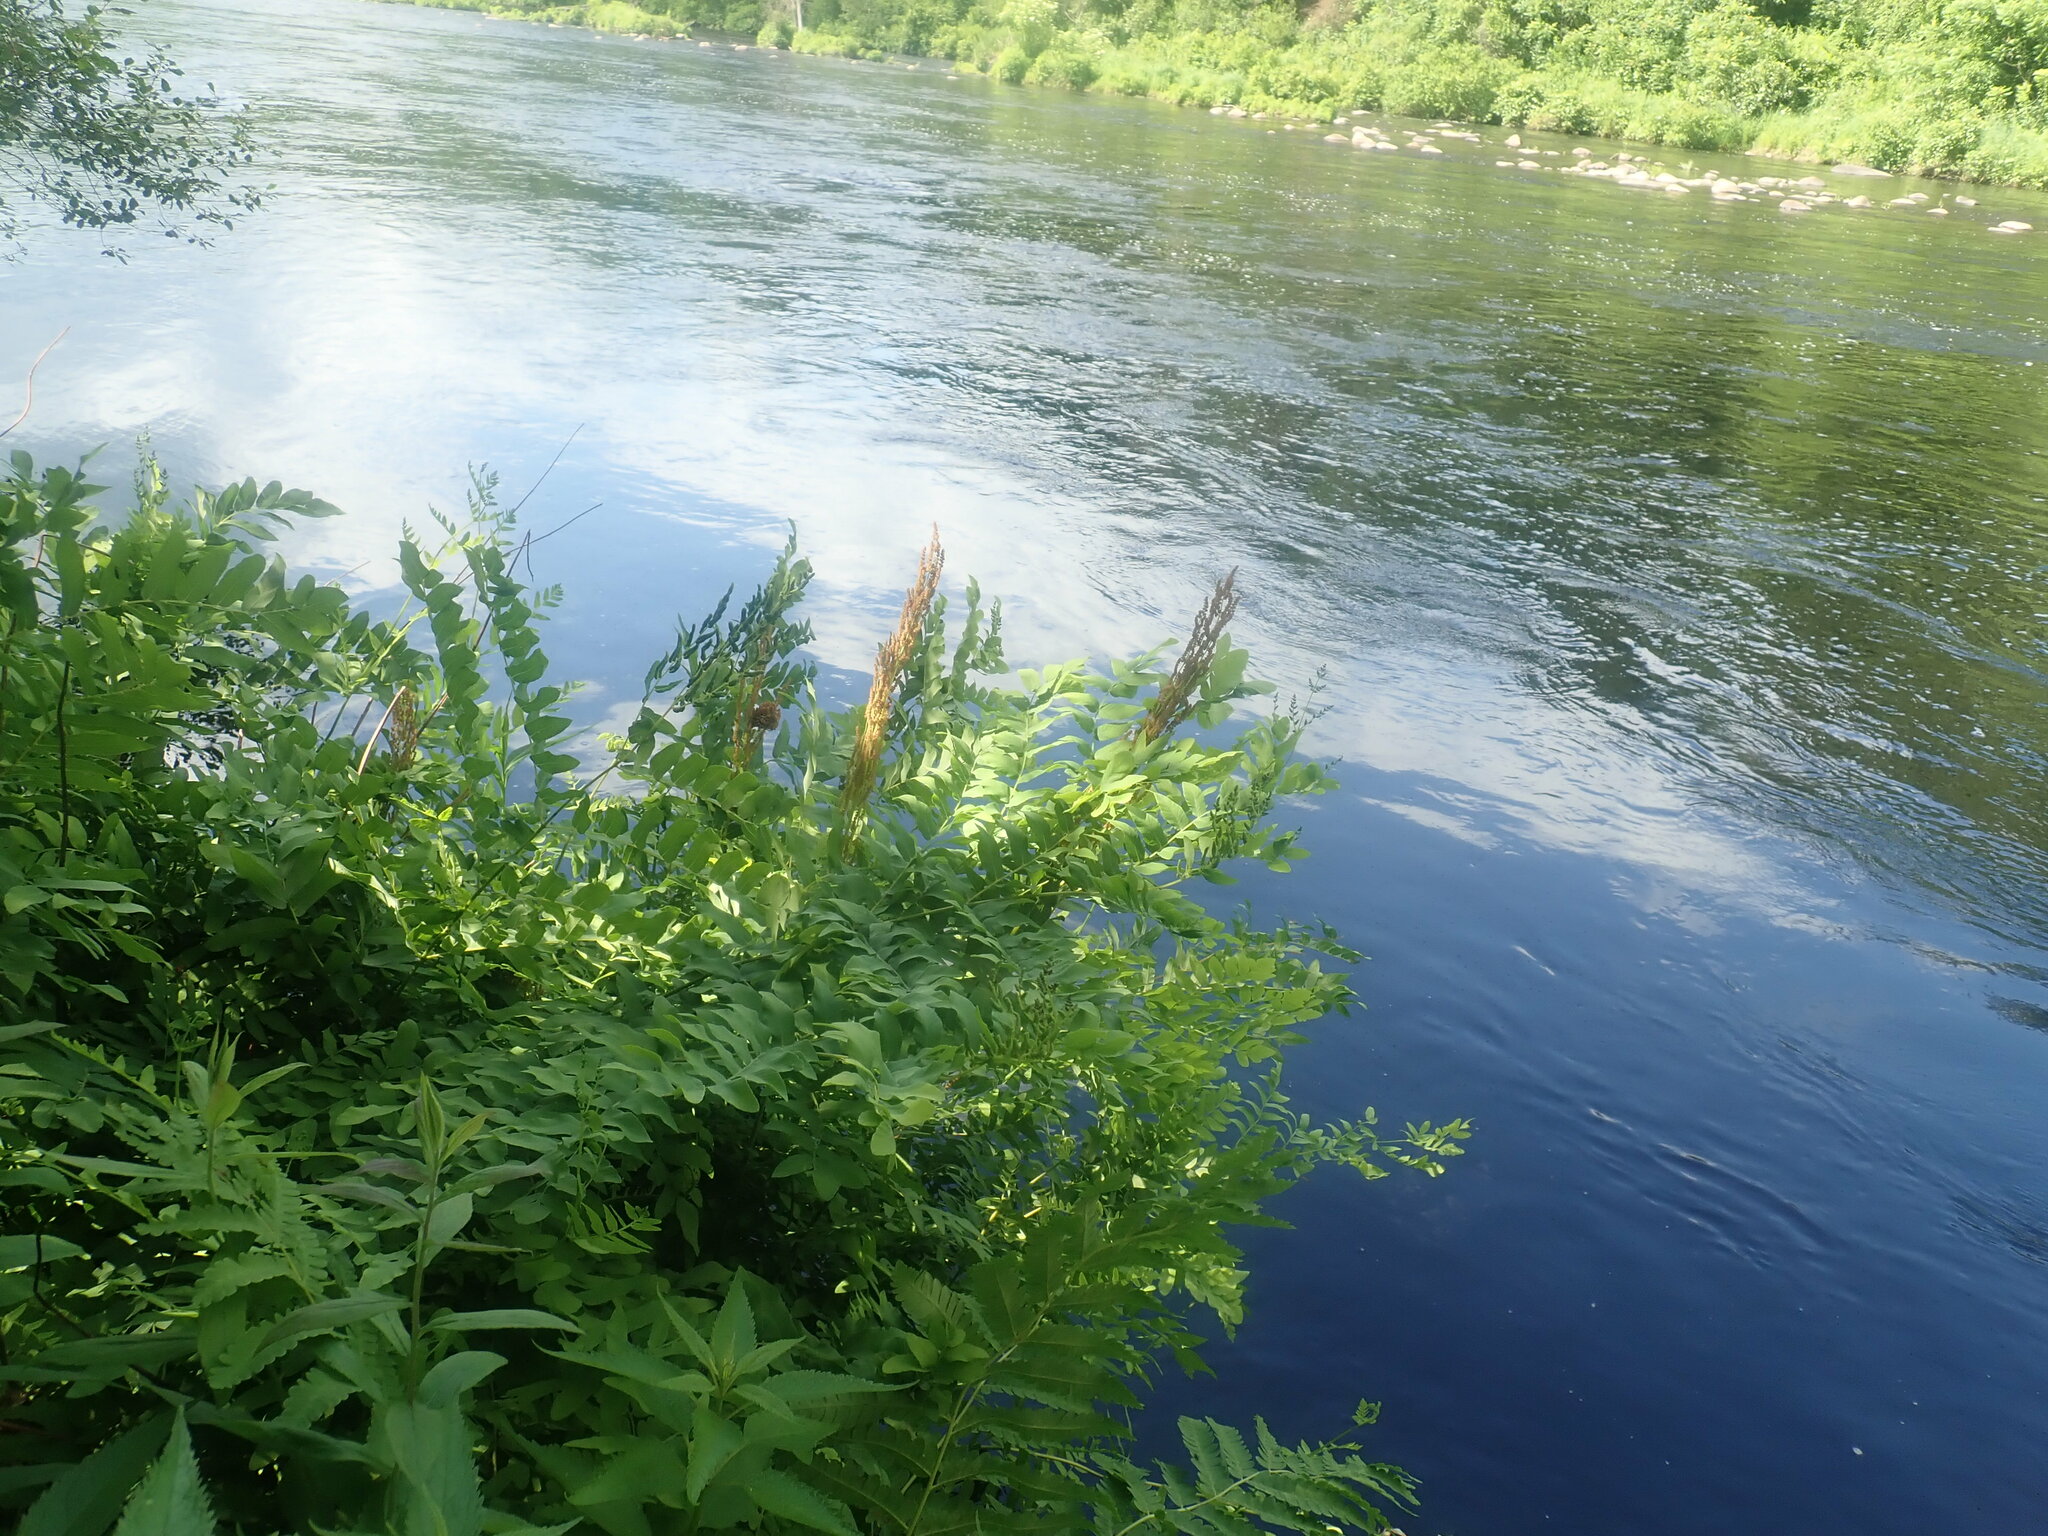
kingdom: Plantae
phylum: Tracheophyta
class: Polypodiopsida
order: Osmundales
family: Osmundaceae
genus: Osmunda
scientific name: Osmunda spectabilis
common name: American royal fern
